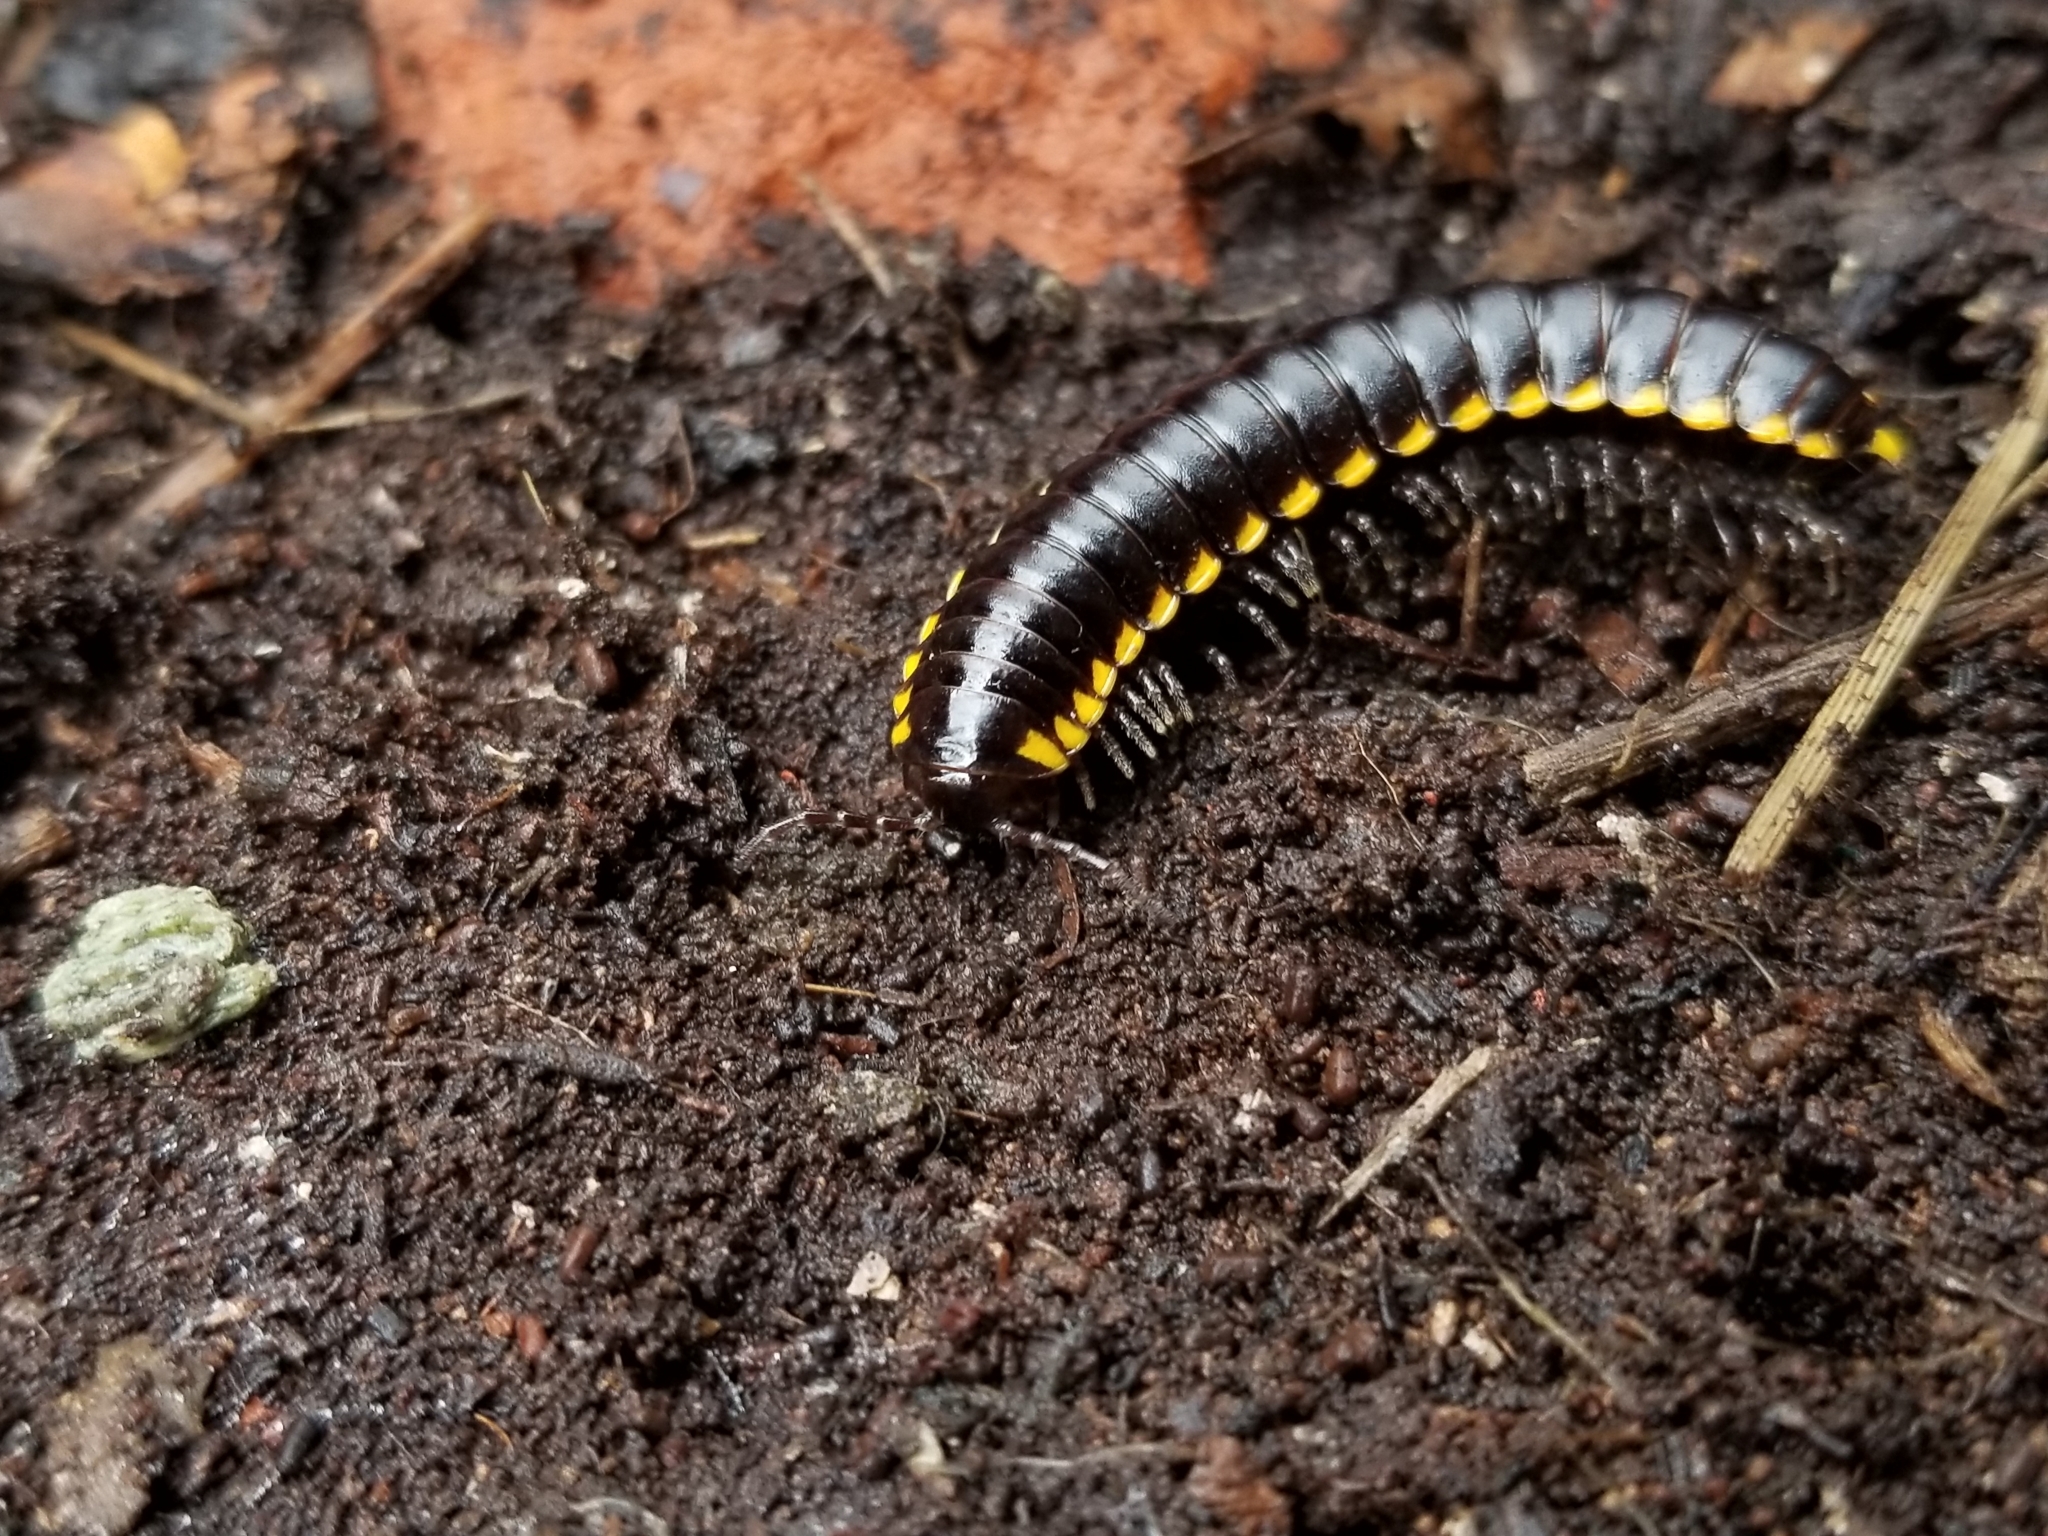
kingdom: Animalia
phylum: Arthropoda
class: Diplopoda
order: Polydesmida
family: Xystodesmidae
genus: Harpaphe
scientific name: Harpaphe haydeniana
